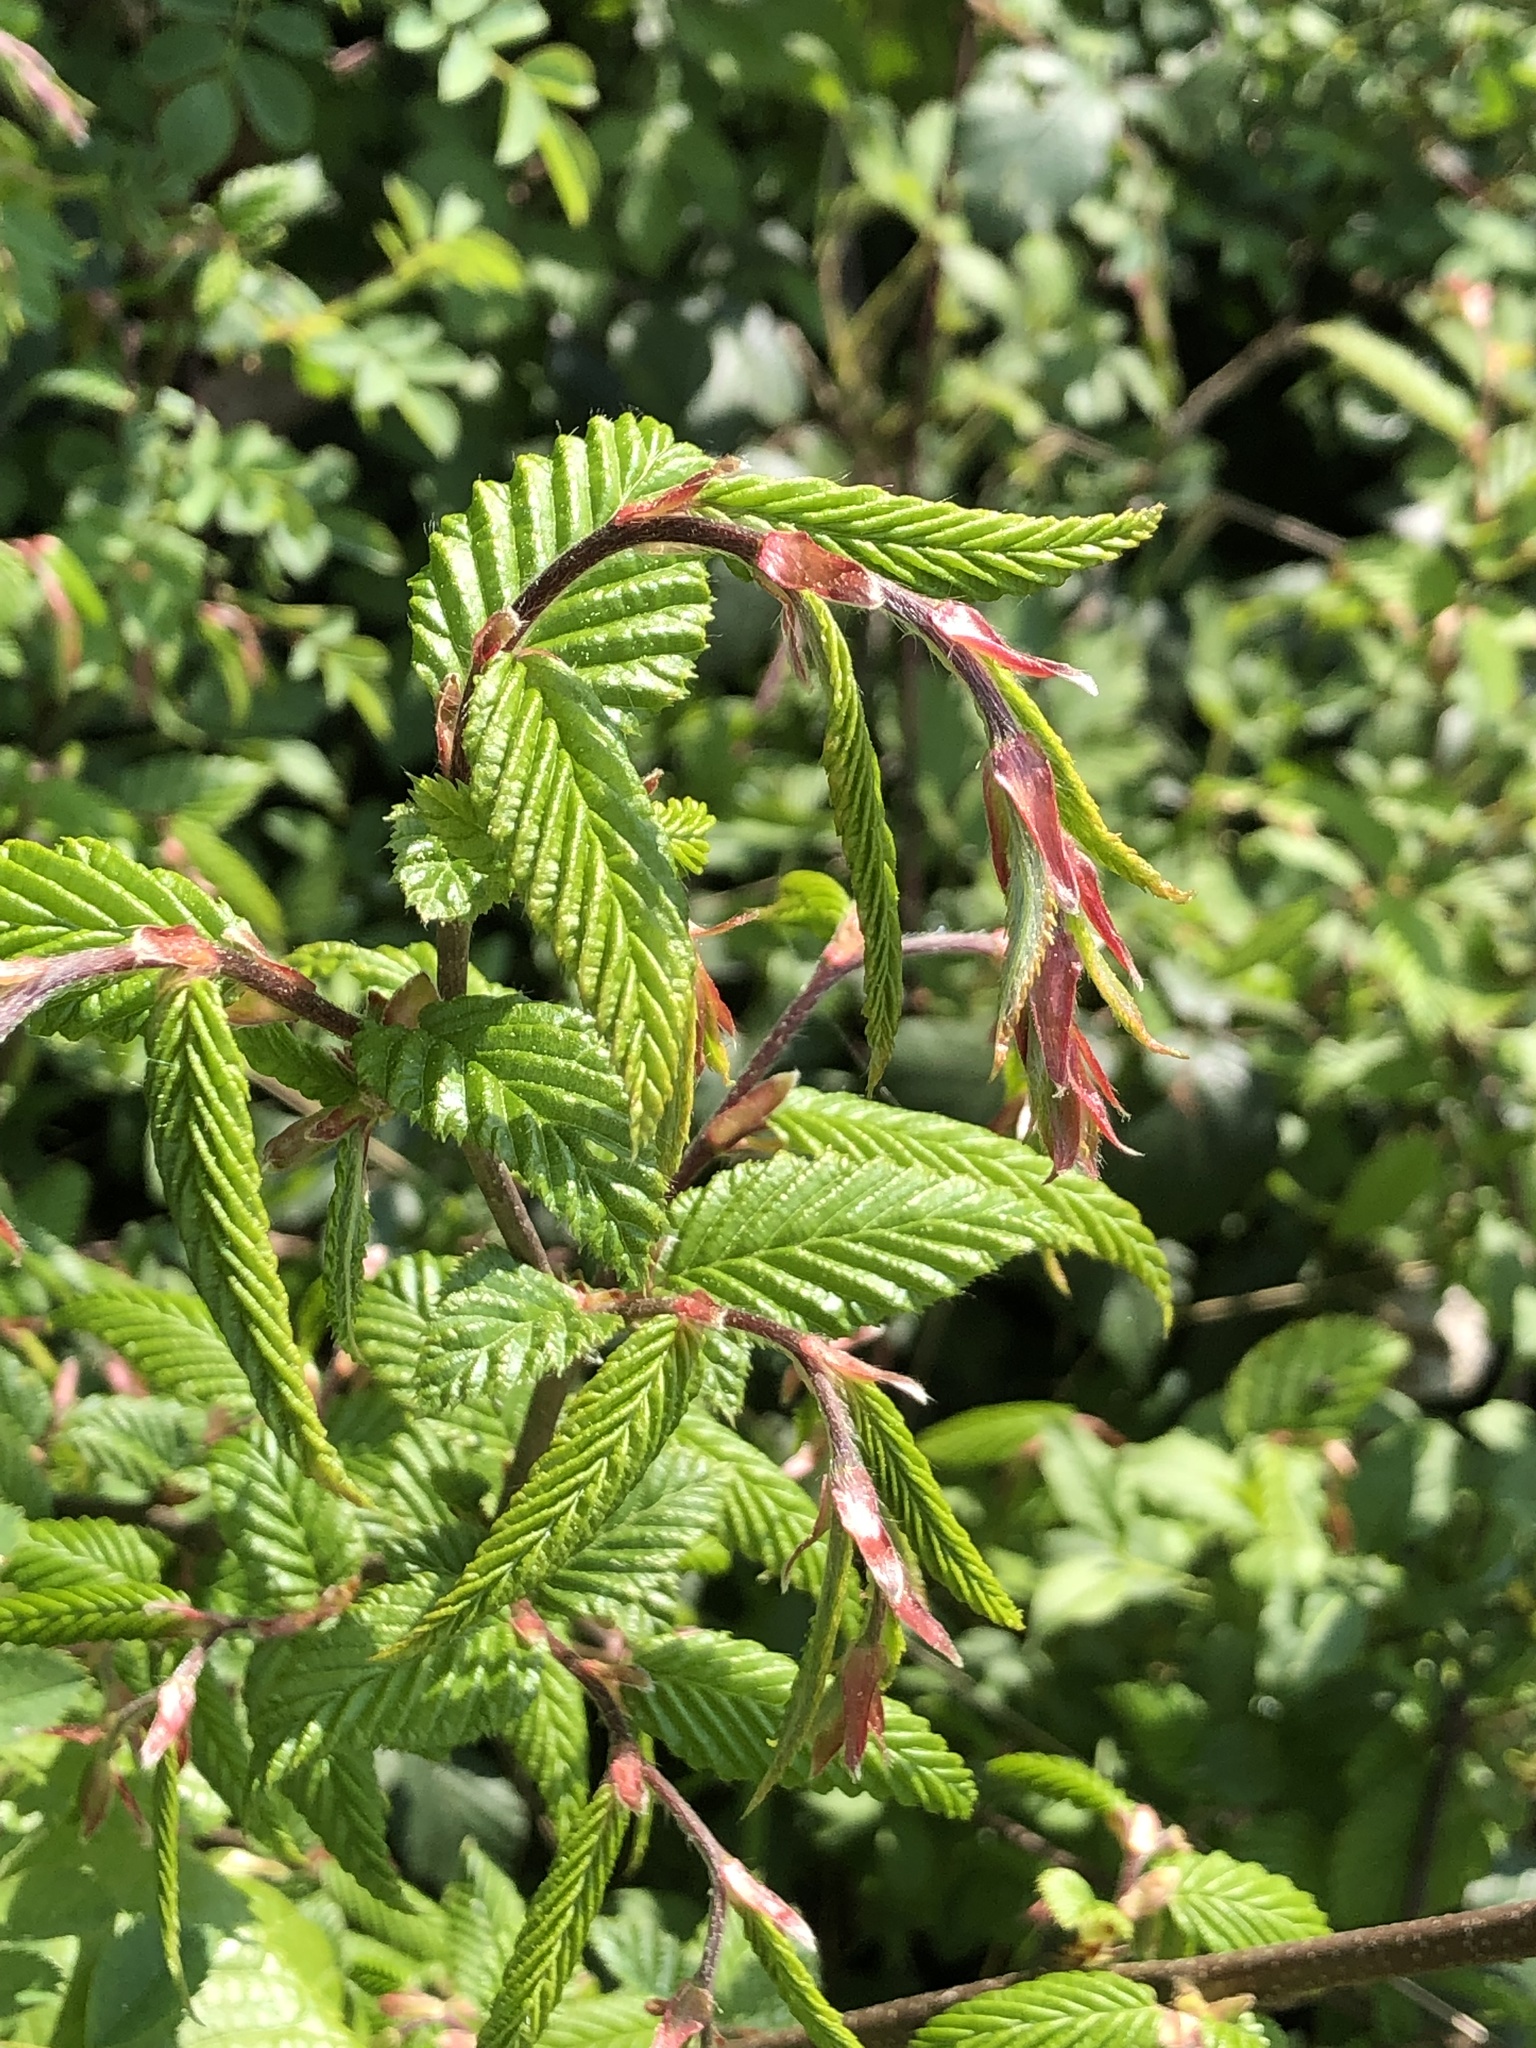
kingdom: Plantae
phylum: Tracheophyta
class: Magnoliopsida
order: Fagales
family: Betulaceae
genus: Carpinus
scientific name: Carpinus betulus
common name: Hornbeam
